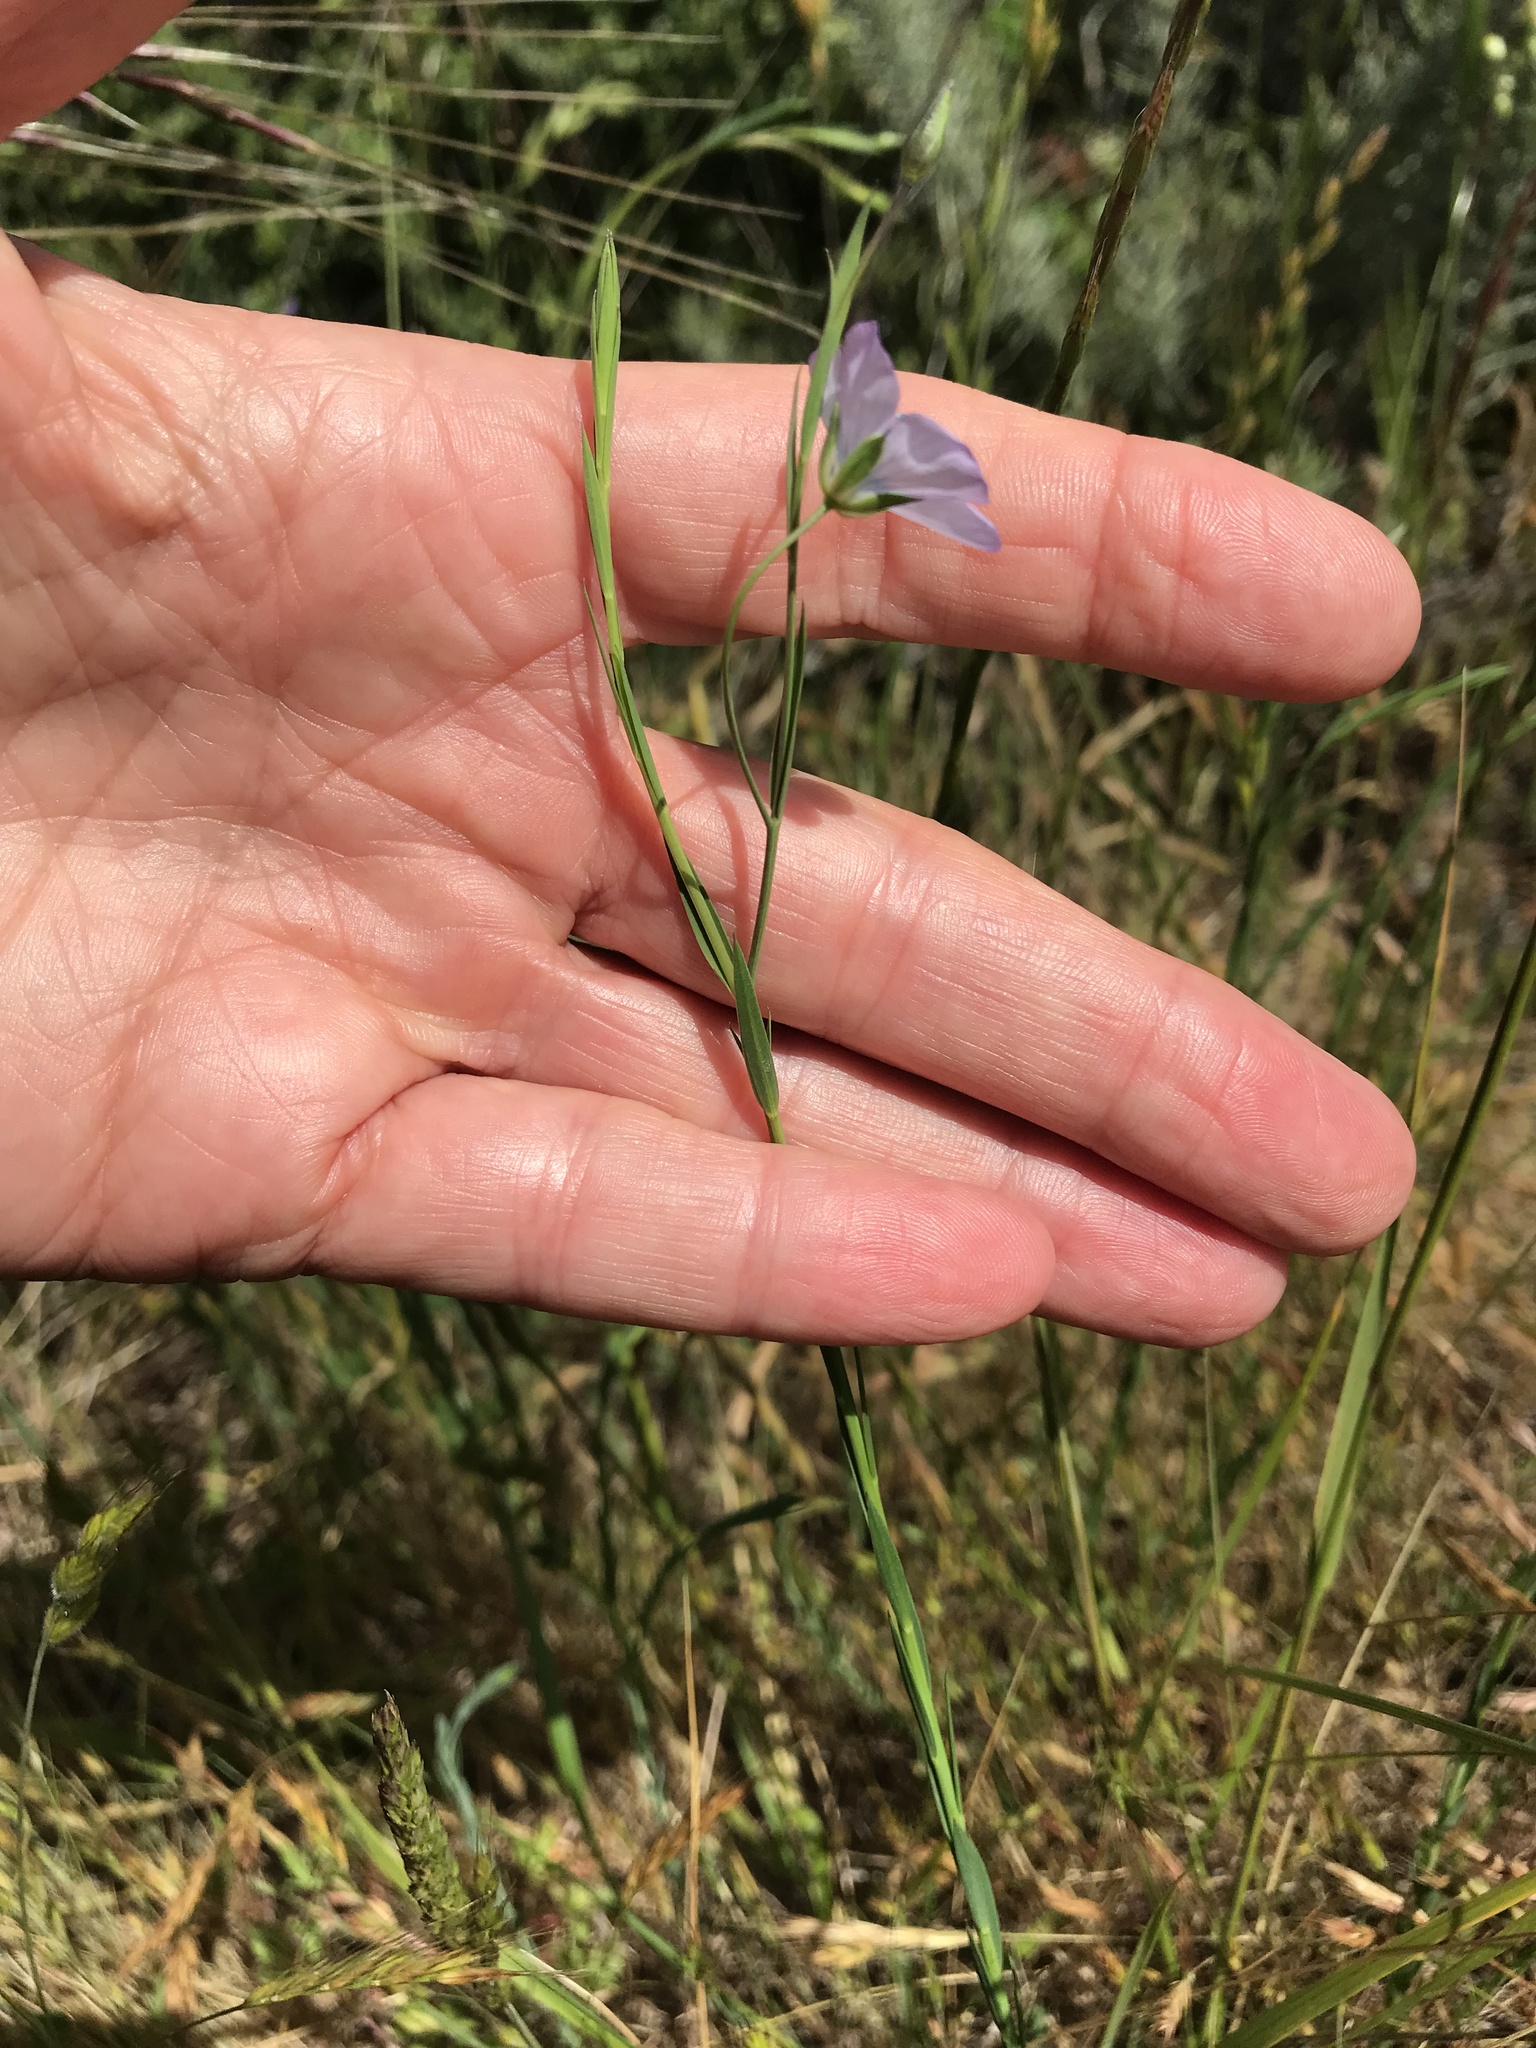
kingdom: Plantae
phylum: Tracheophyta
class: Magnoliopsida
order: Malpighiales
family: Linaceae
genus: Linum
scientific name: Linum bienne
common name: Pale flax
